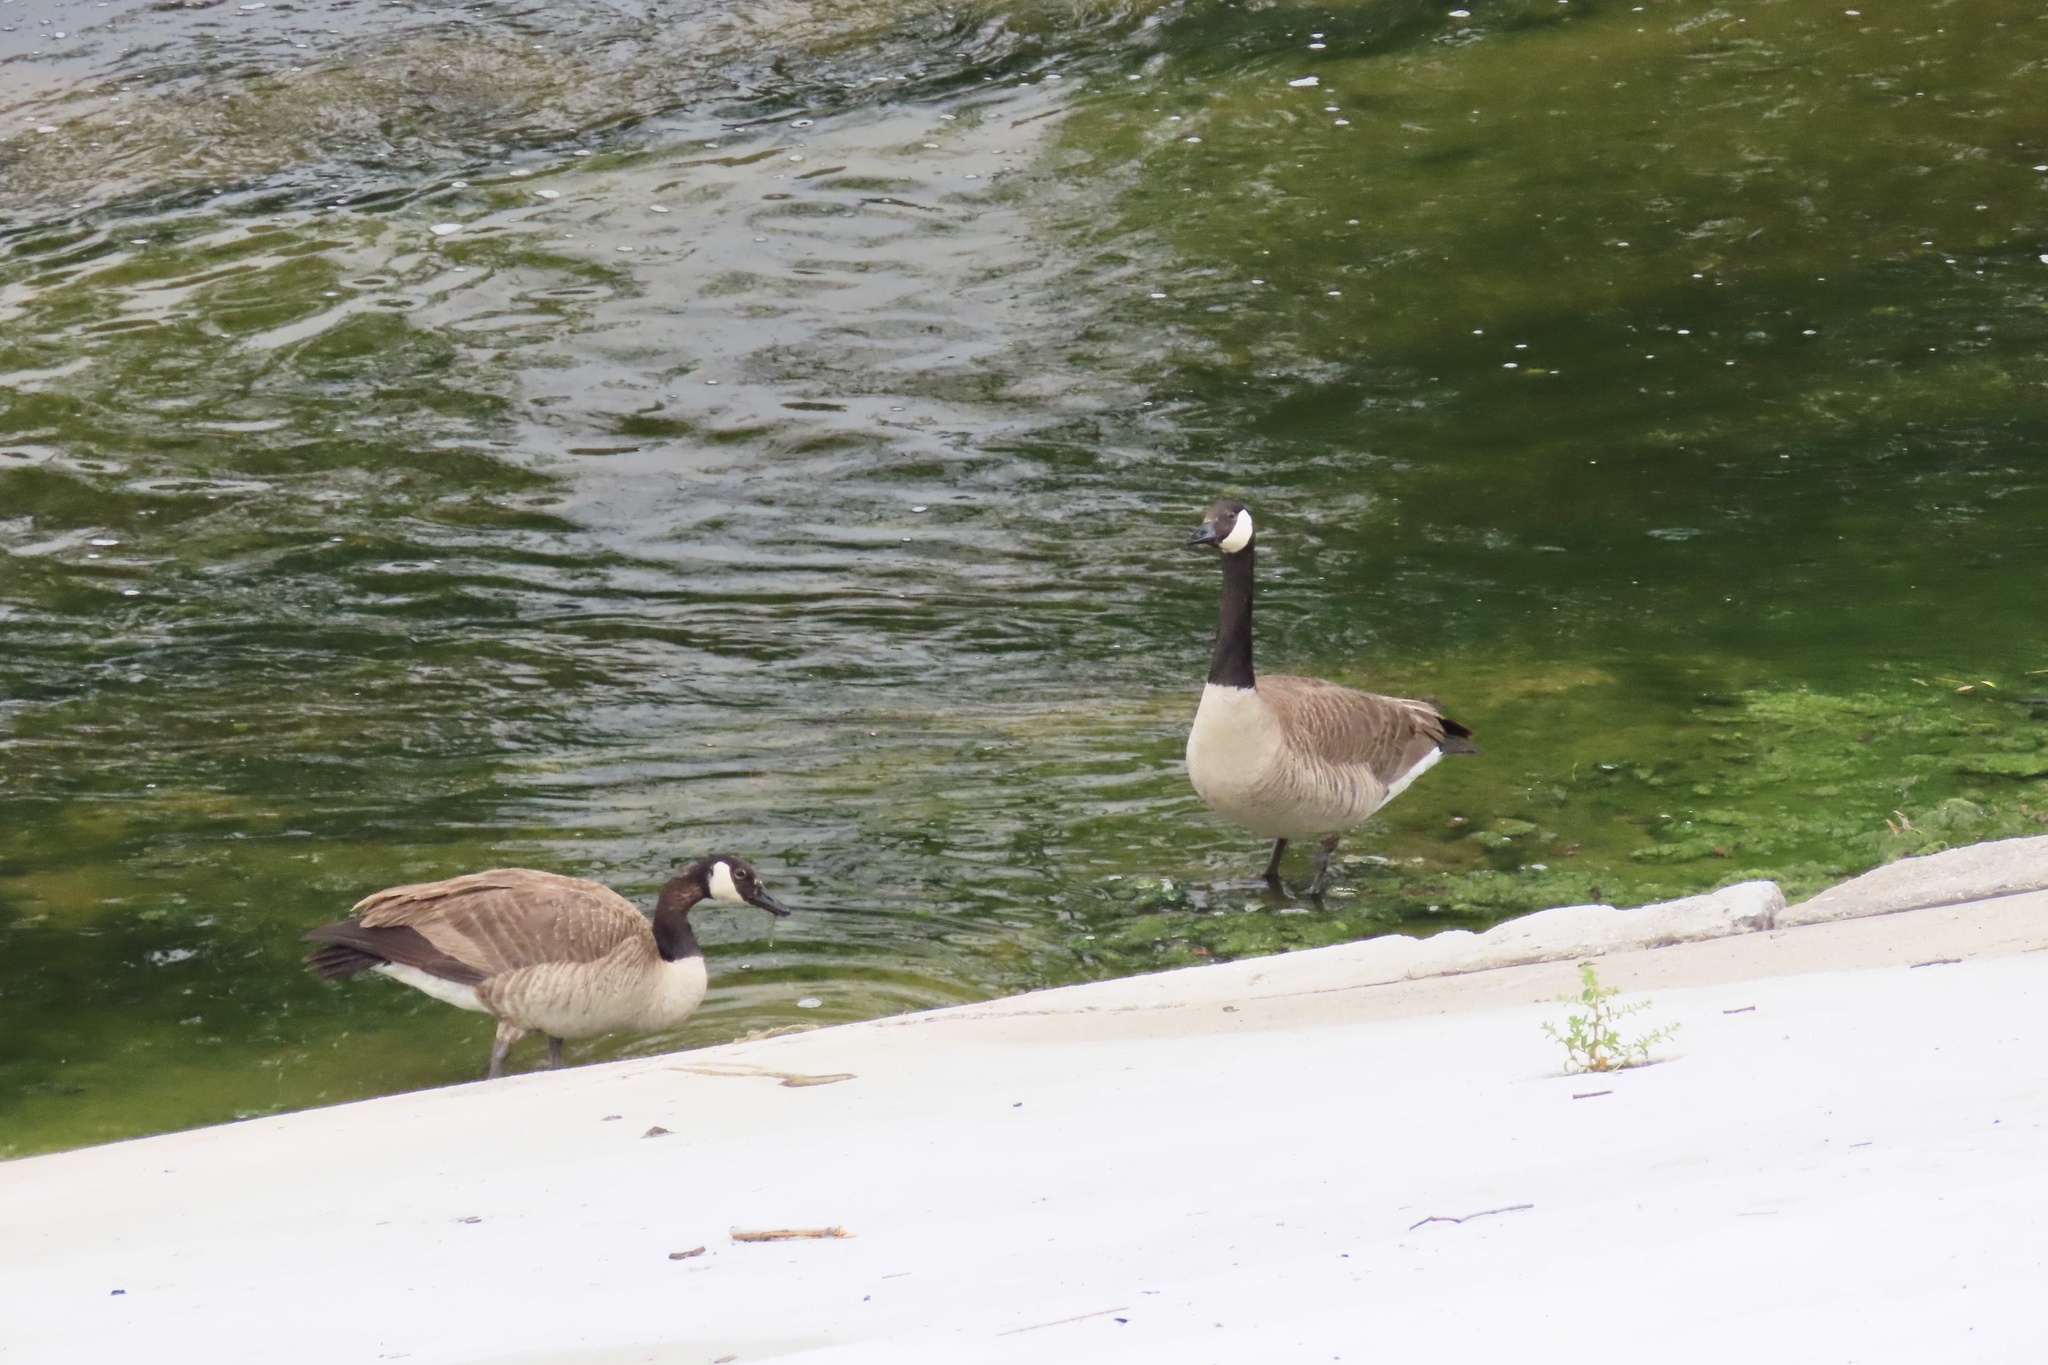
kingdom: Animalia
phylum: Chordata
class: Aves
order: Anseriformes
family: Anatidae
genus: Branta
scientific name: Branta canadensis
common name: Canada goose
